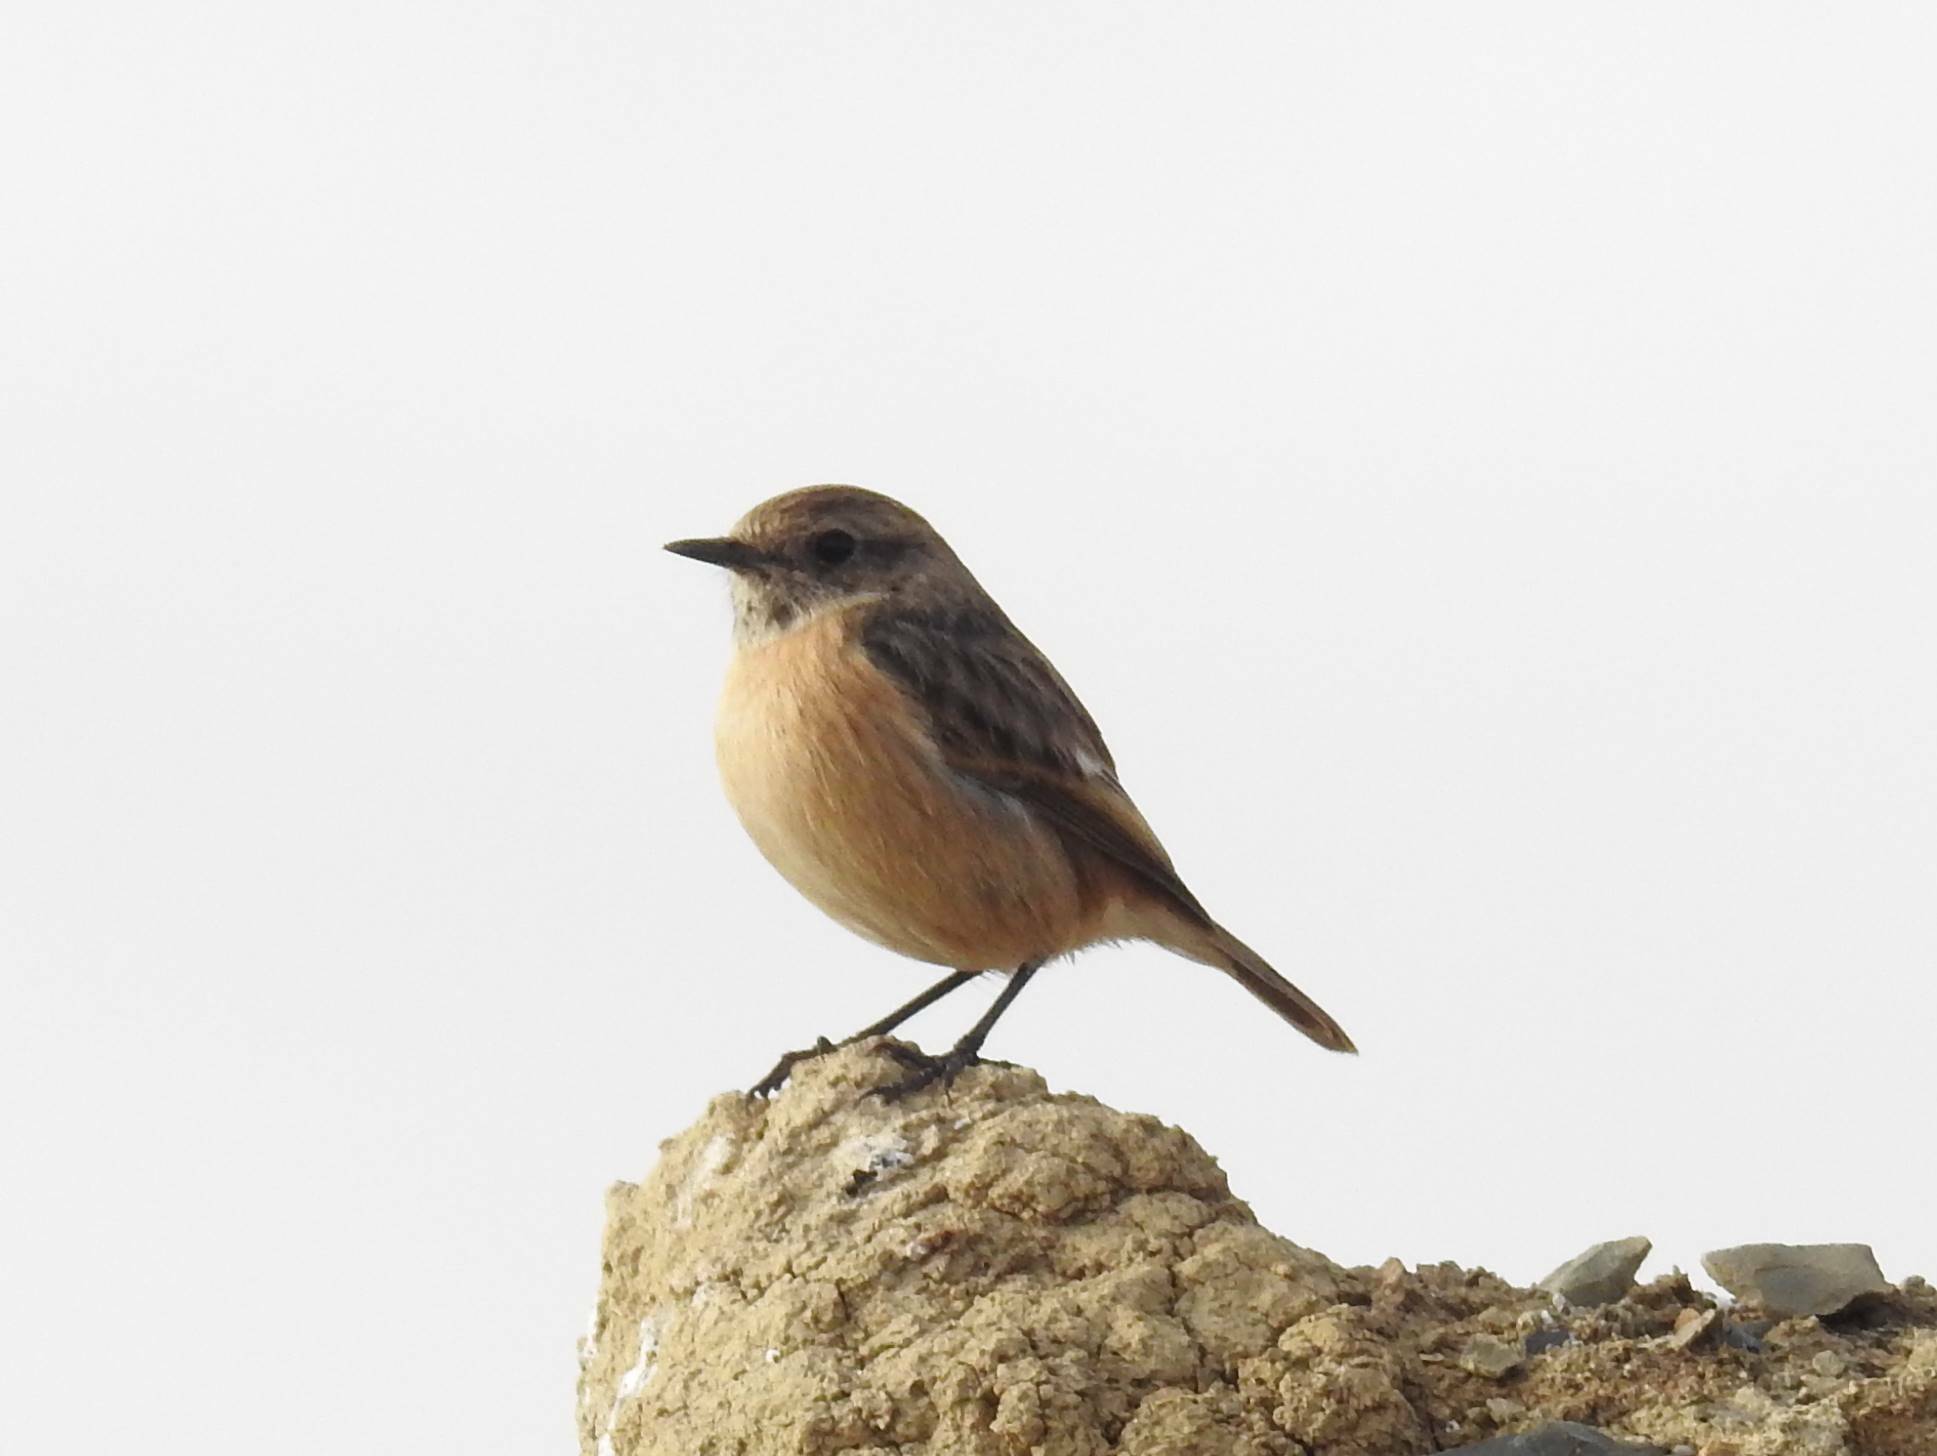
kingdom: Animalia
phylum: Chordata
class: Aves
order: Passeriformes
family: Muscicapidae
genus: Saxicola
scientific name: Saxicola rubicola
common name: European stonechat
